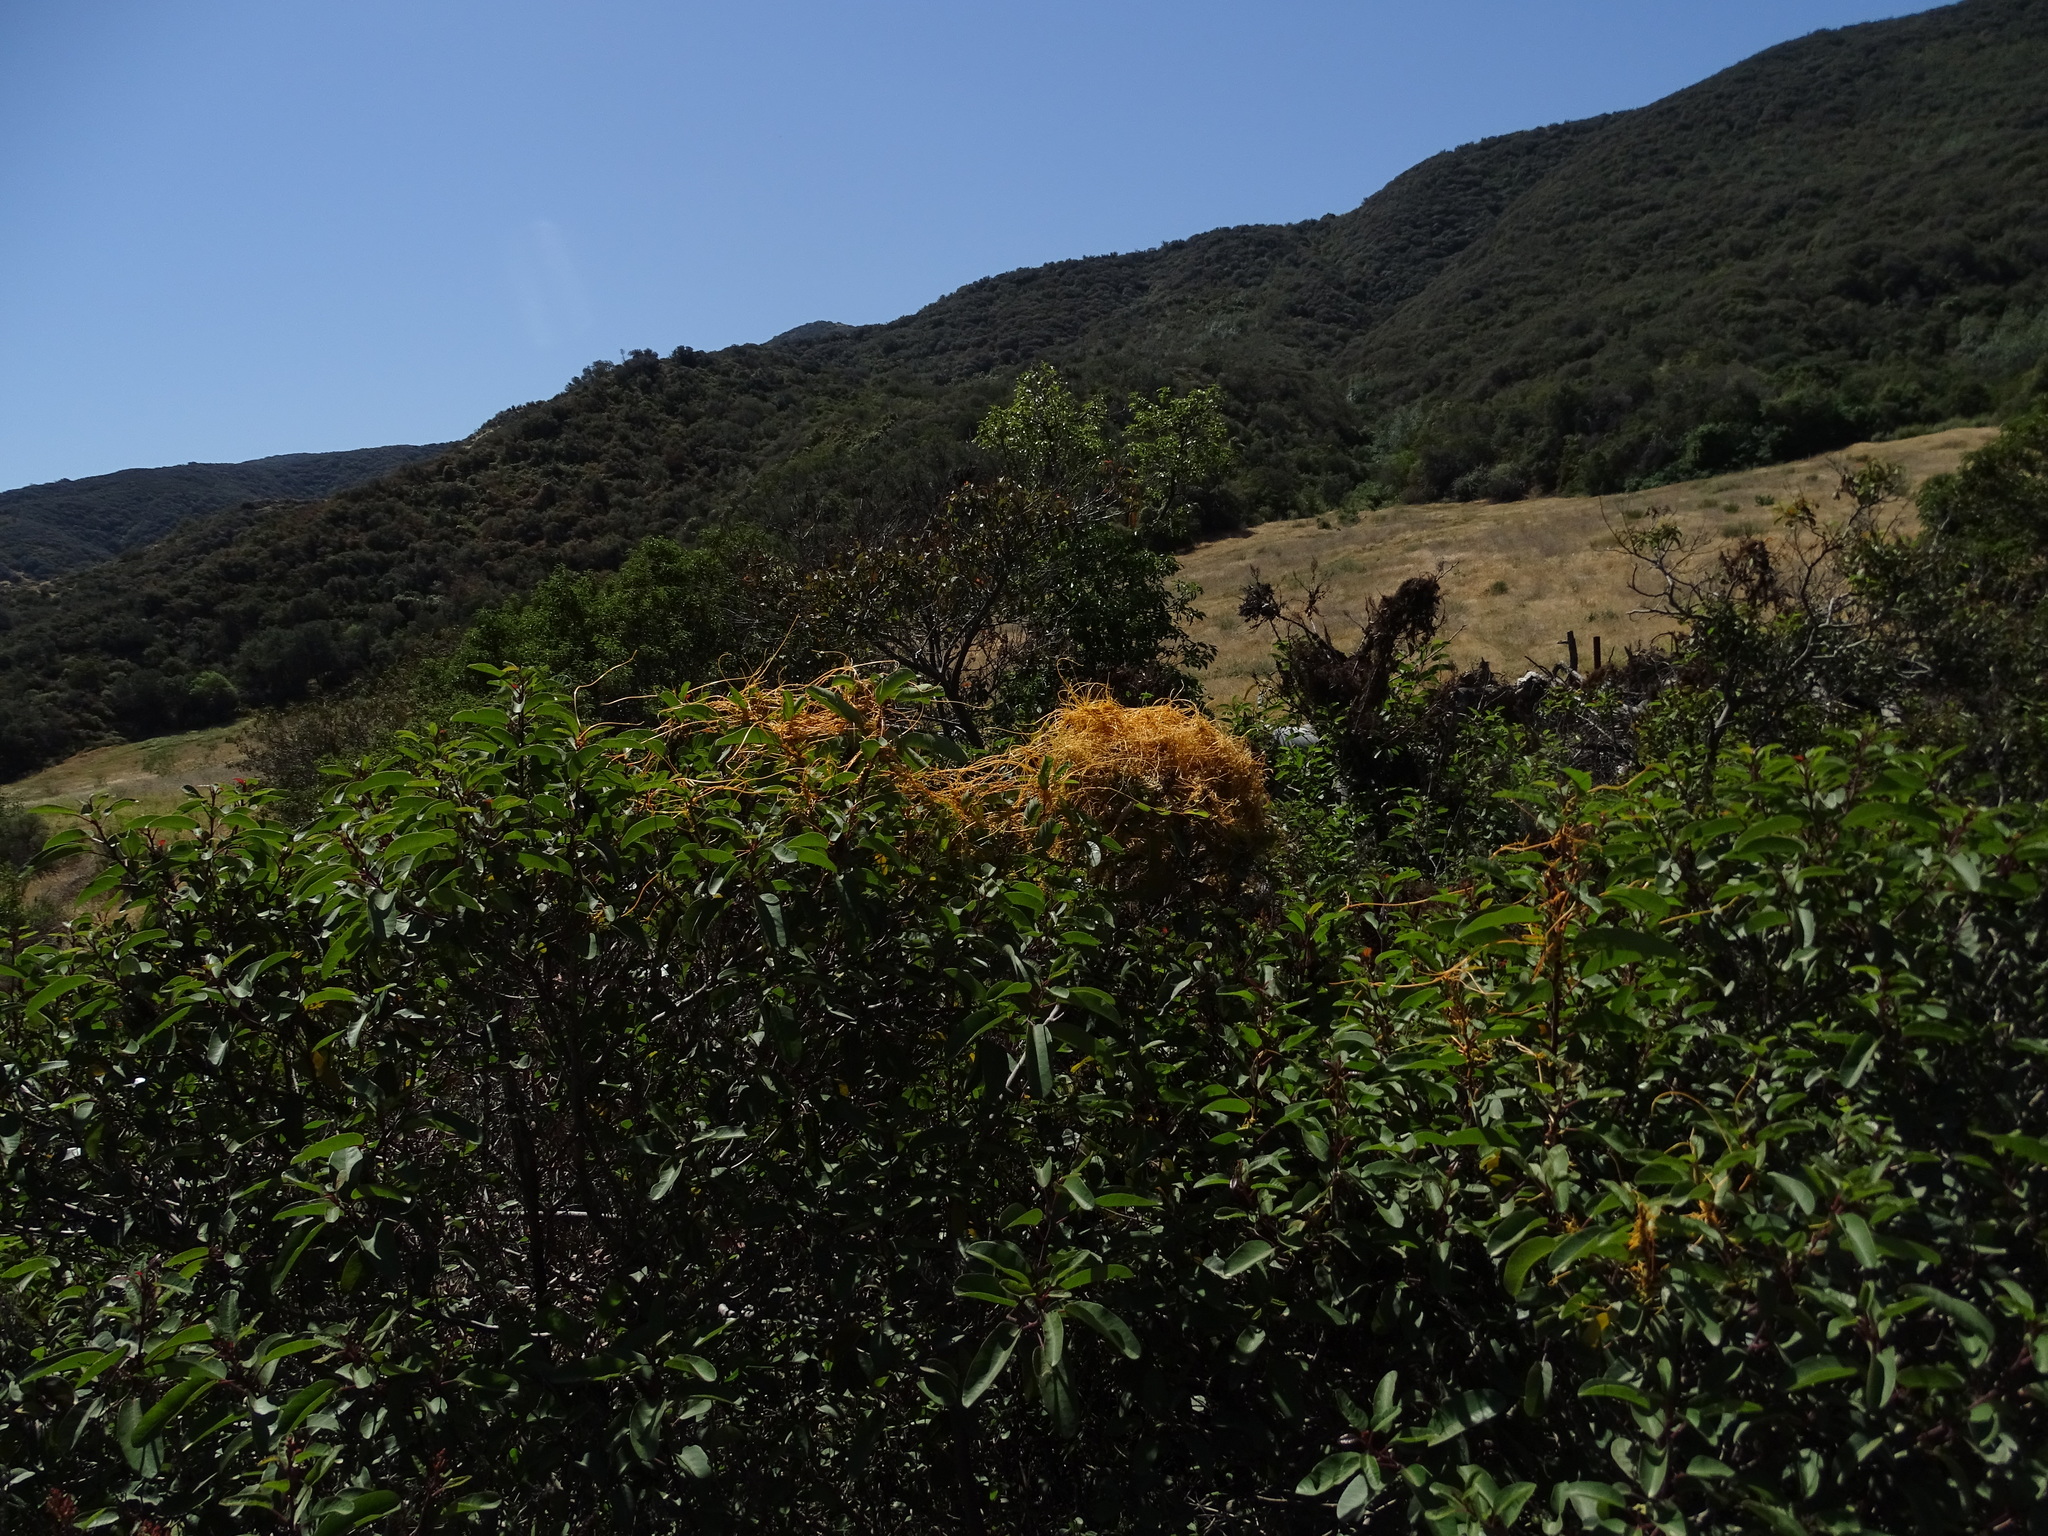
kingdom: Plantae
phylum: Tracheophyta
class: Magnoliopsida
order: Solanales
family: Convolvulaceae
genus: Cuscuta
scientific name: Cuscuta
